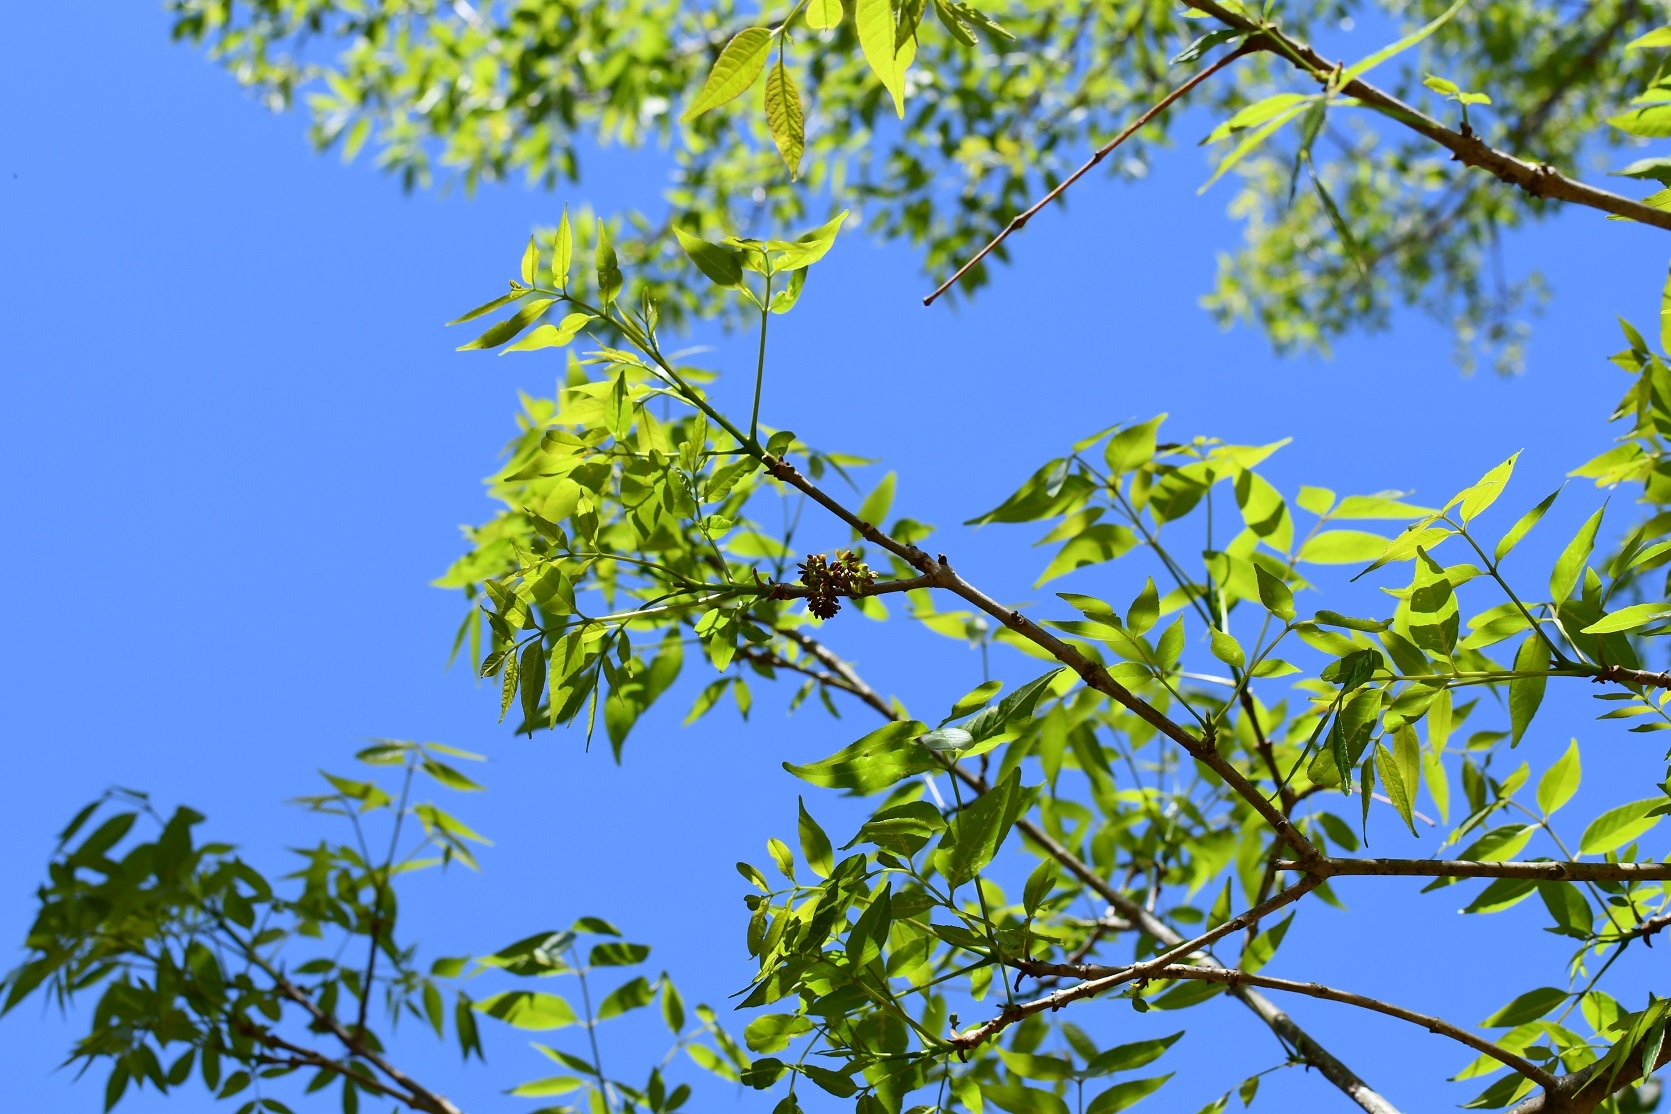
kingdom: Plantae
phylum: Tracheophyta
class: Magnoliopsida
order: Lamiales
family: Oleaceae
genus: Fraxinus
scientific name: Fraxinus velutina
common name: Arizon ash
